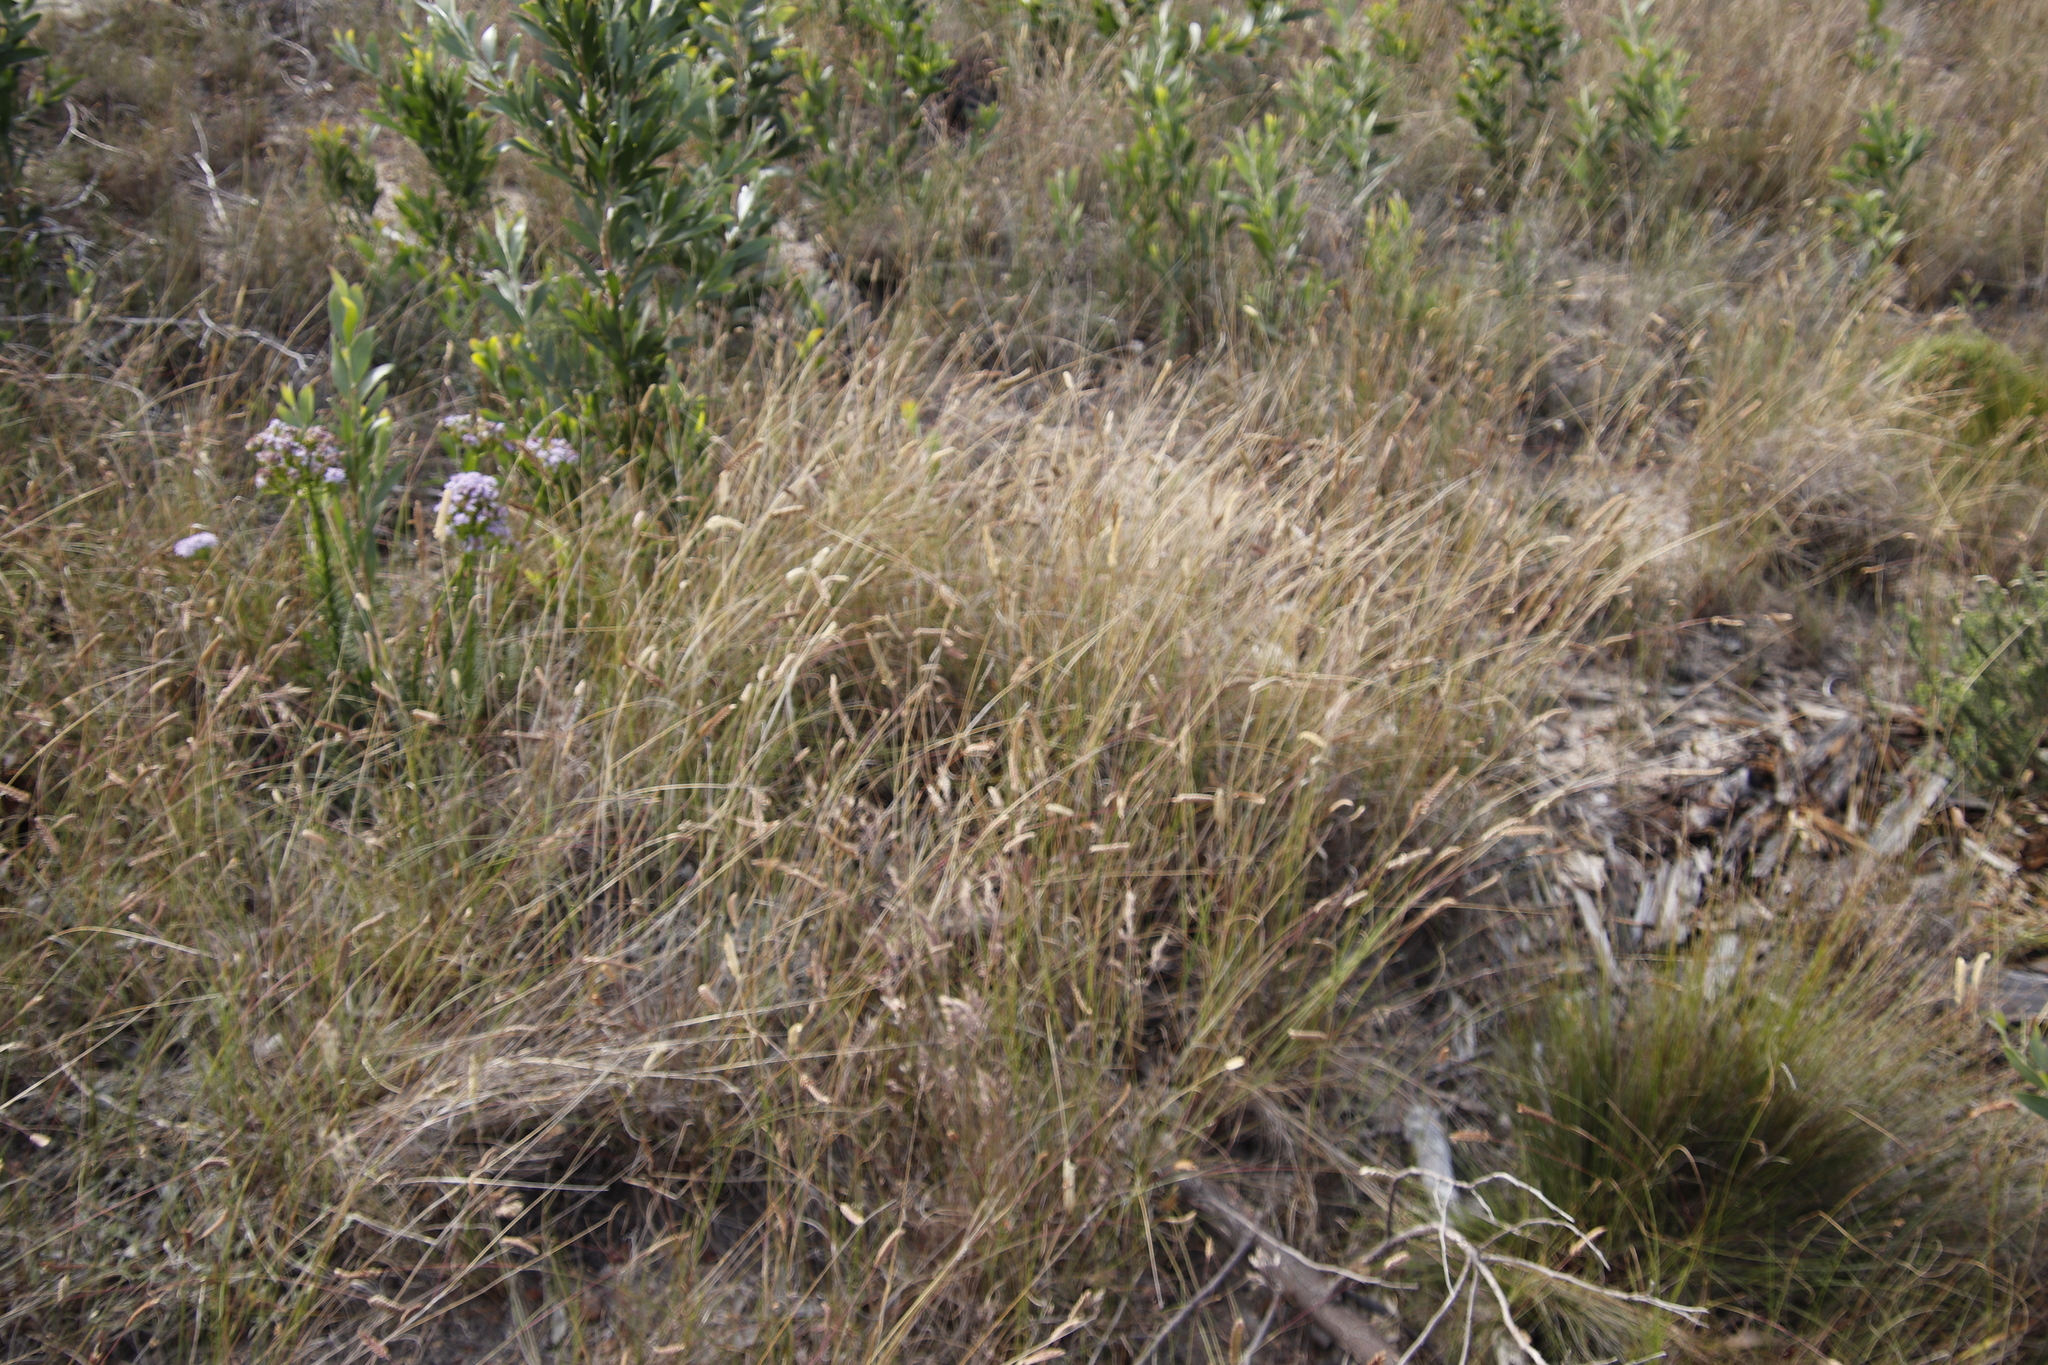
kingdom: Plantae
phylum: Tracheophyta
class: Liliopsida
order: Poales
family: Poaceae
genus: Tribolium
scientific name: Tribolium uniolae
